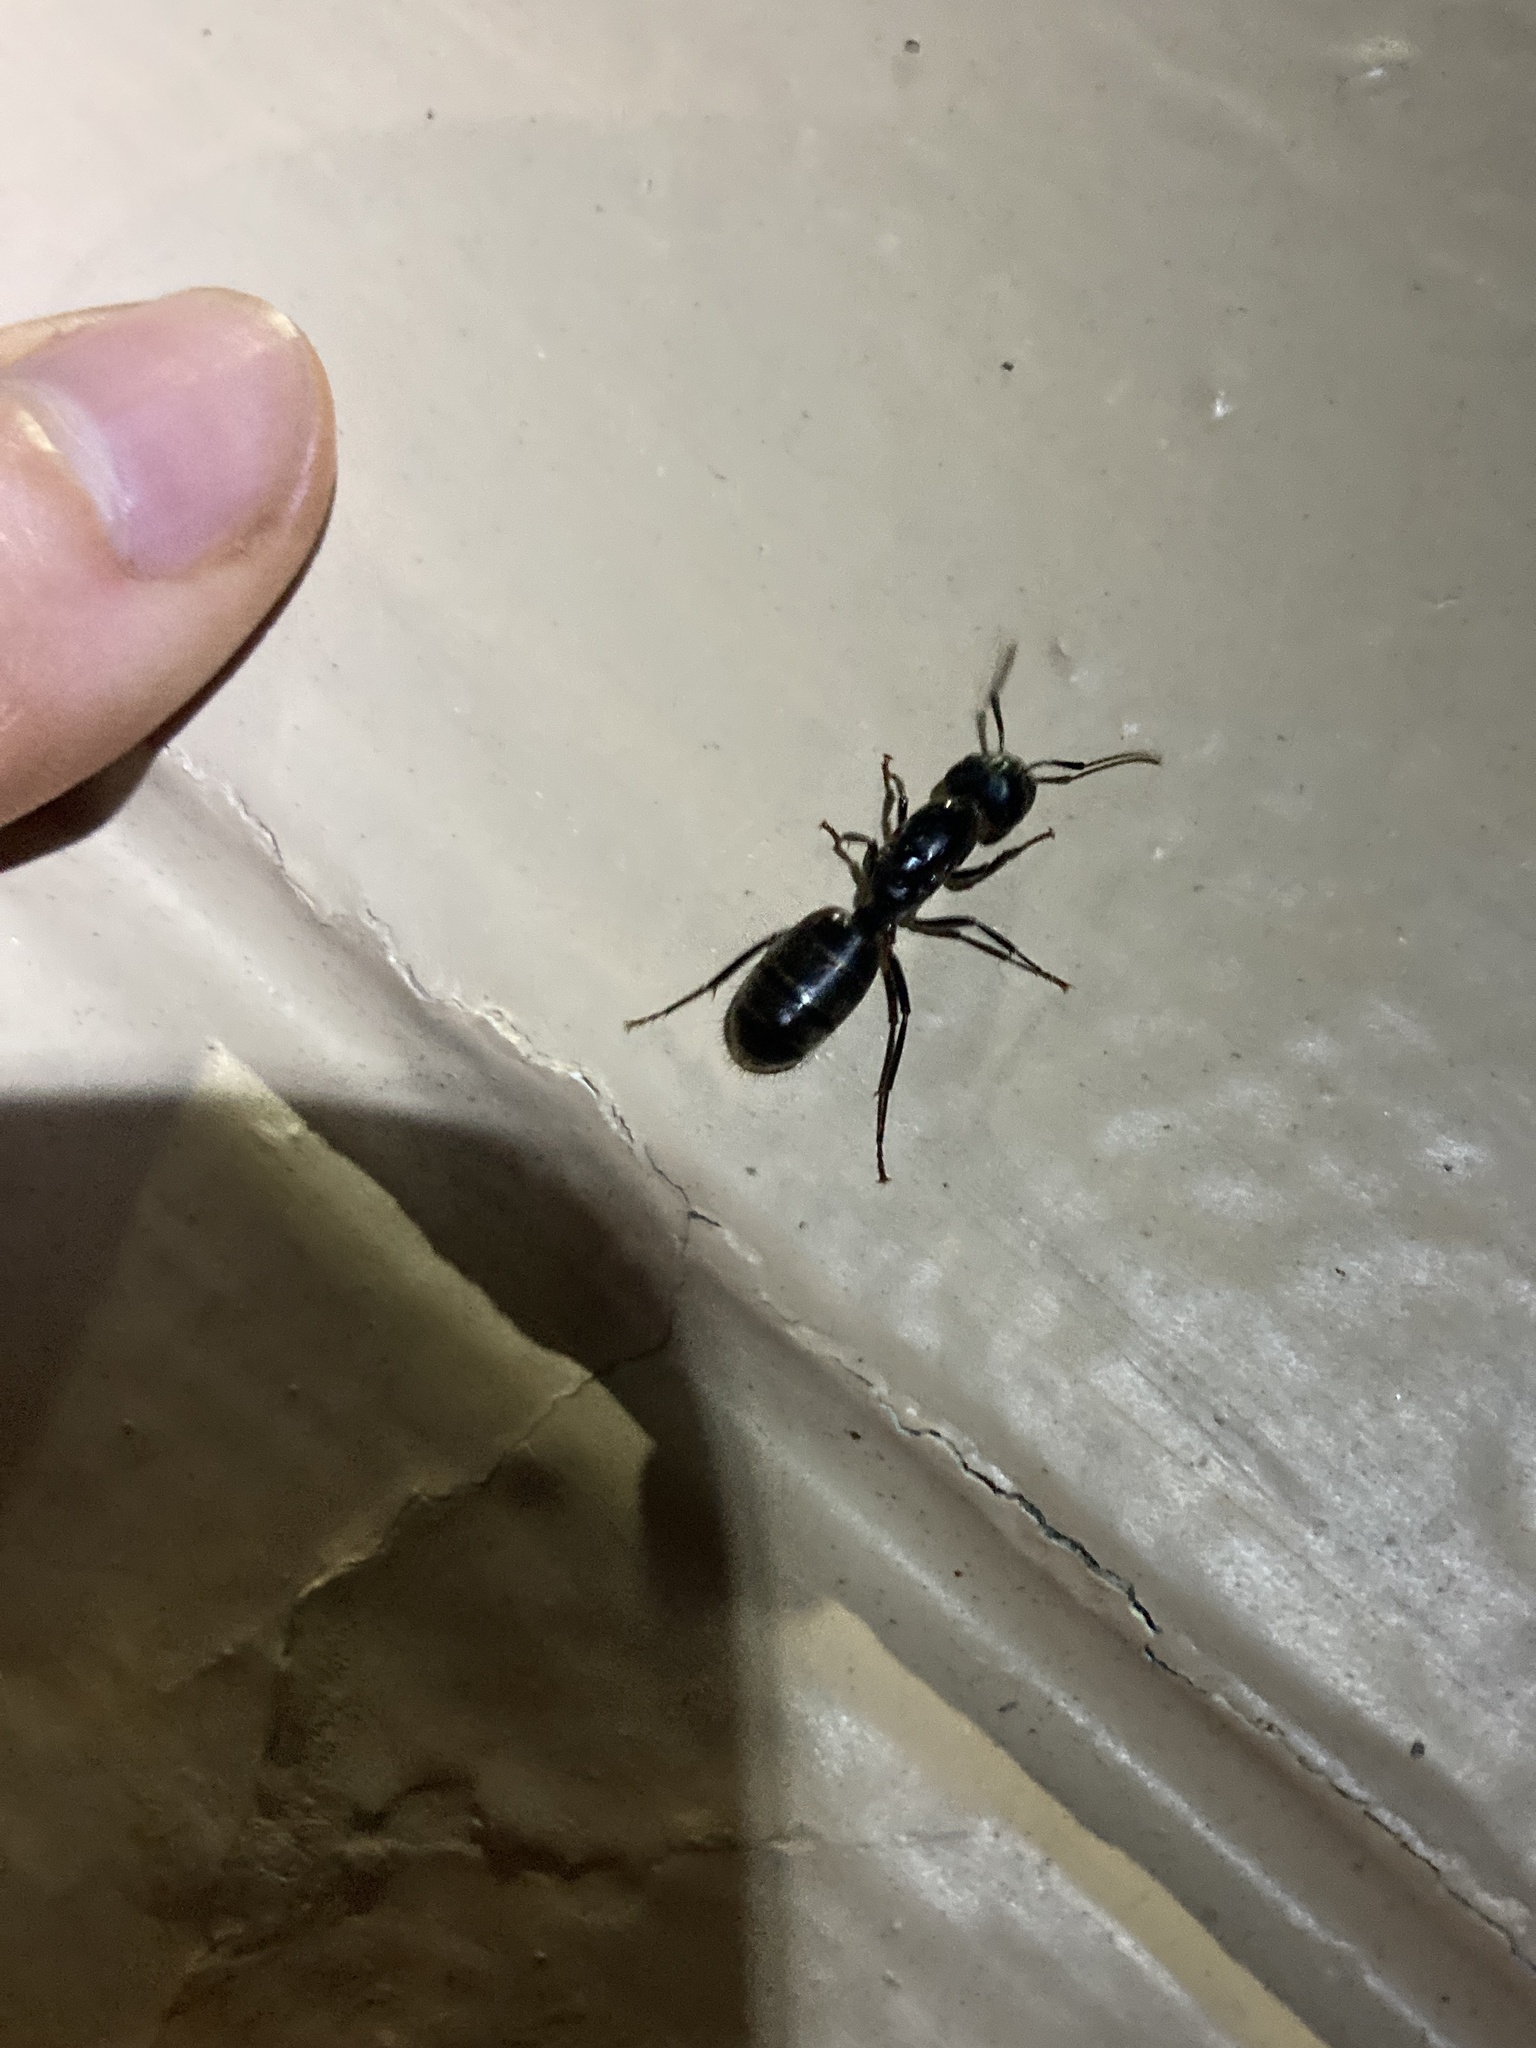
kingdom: Animalia
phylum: Arthropoda
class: Insecta
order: Hymenoptera
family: Formicidae
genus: Camponotus
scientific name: Camponotus pennsylvanicus
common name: Black carpenter ant
